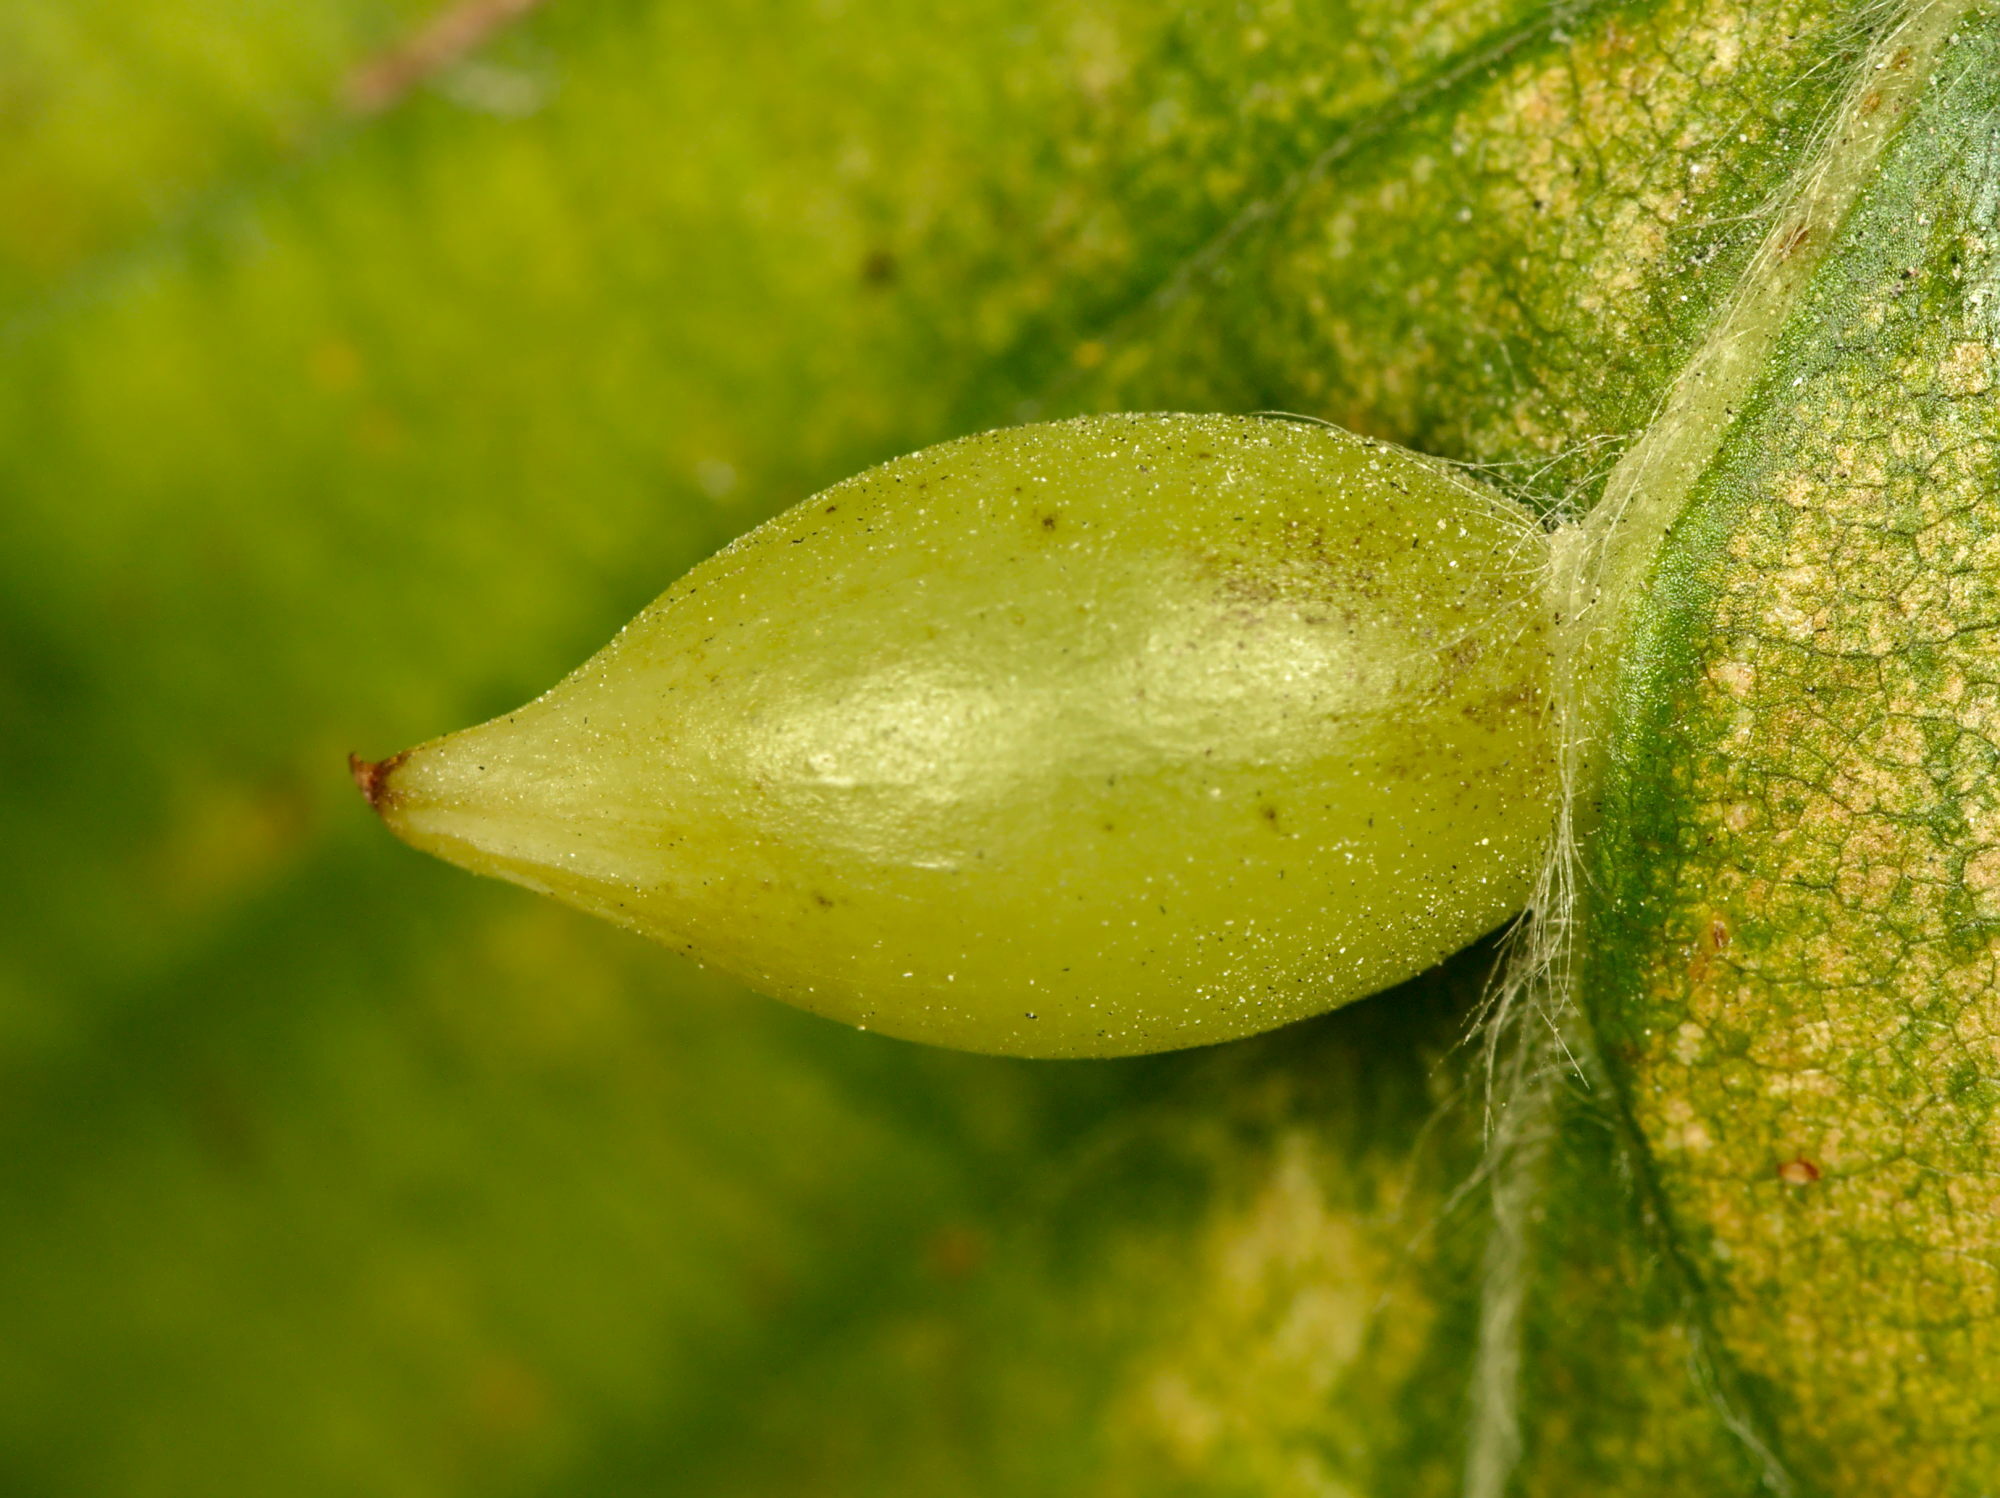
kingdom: Animalia
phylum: Arthropoda
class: Insecta
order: Diptera
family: Cecidomyiidae
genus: Mikiola
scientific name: Mikiola fagi
